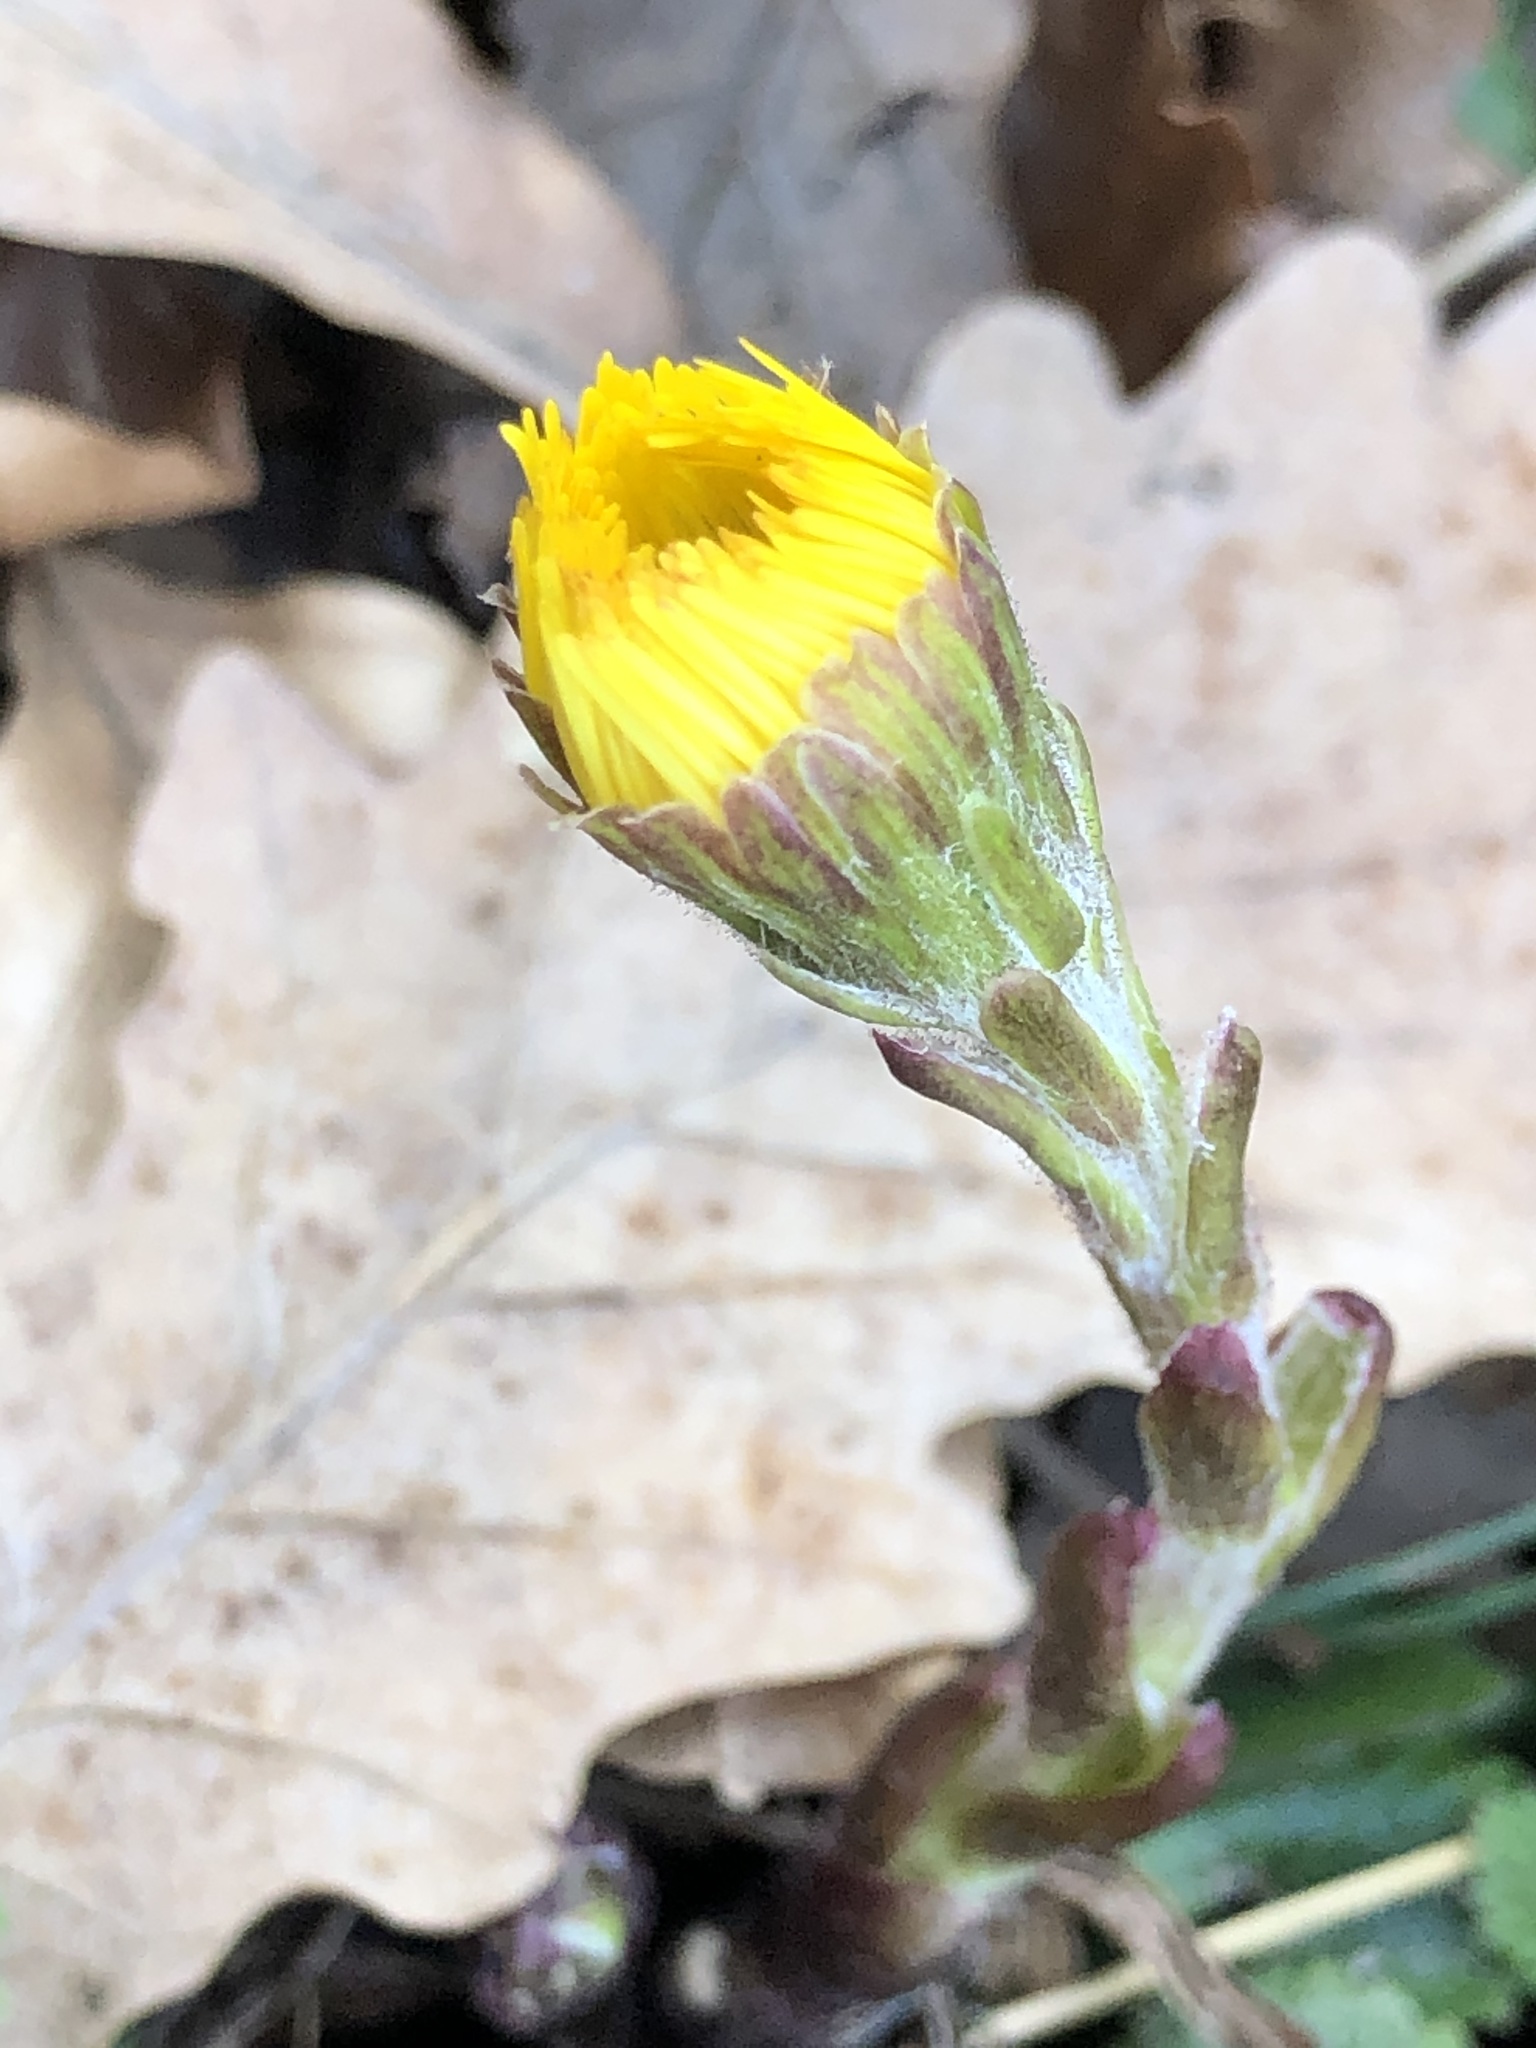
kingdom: Plantae
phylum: Tracheophyta
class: Magnoliopsida
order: Asterales
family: Asteraceae
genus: Tussilago
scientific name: Tussilago farfara
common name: Coltsfoot
